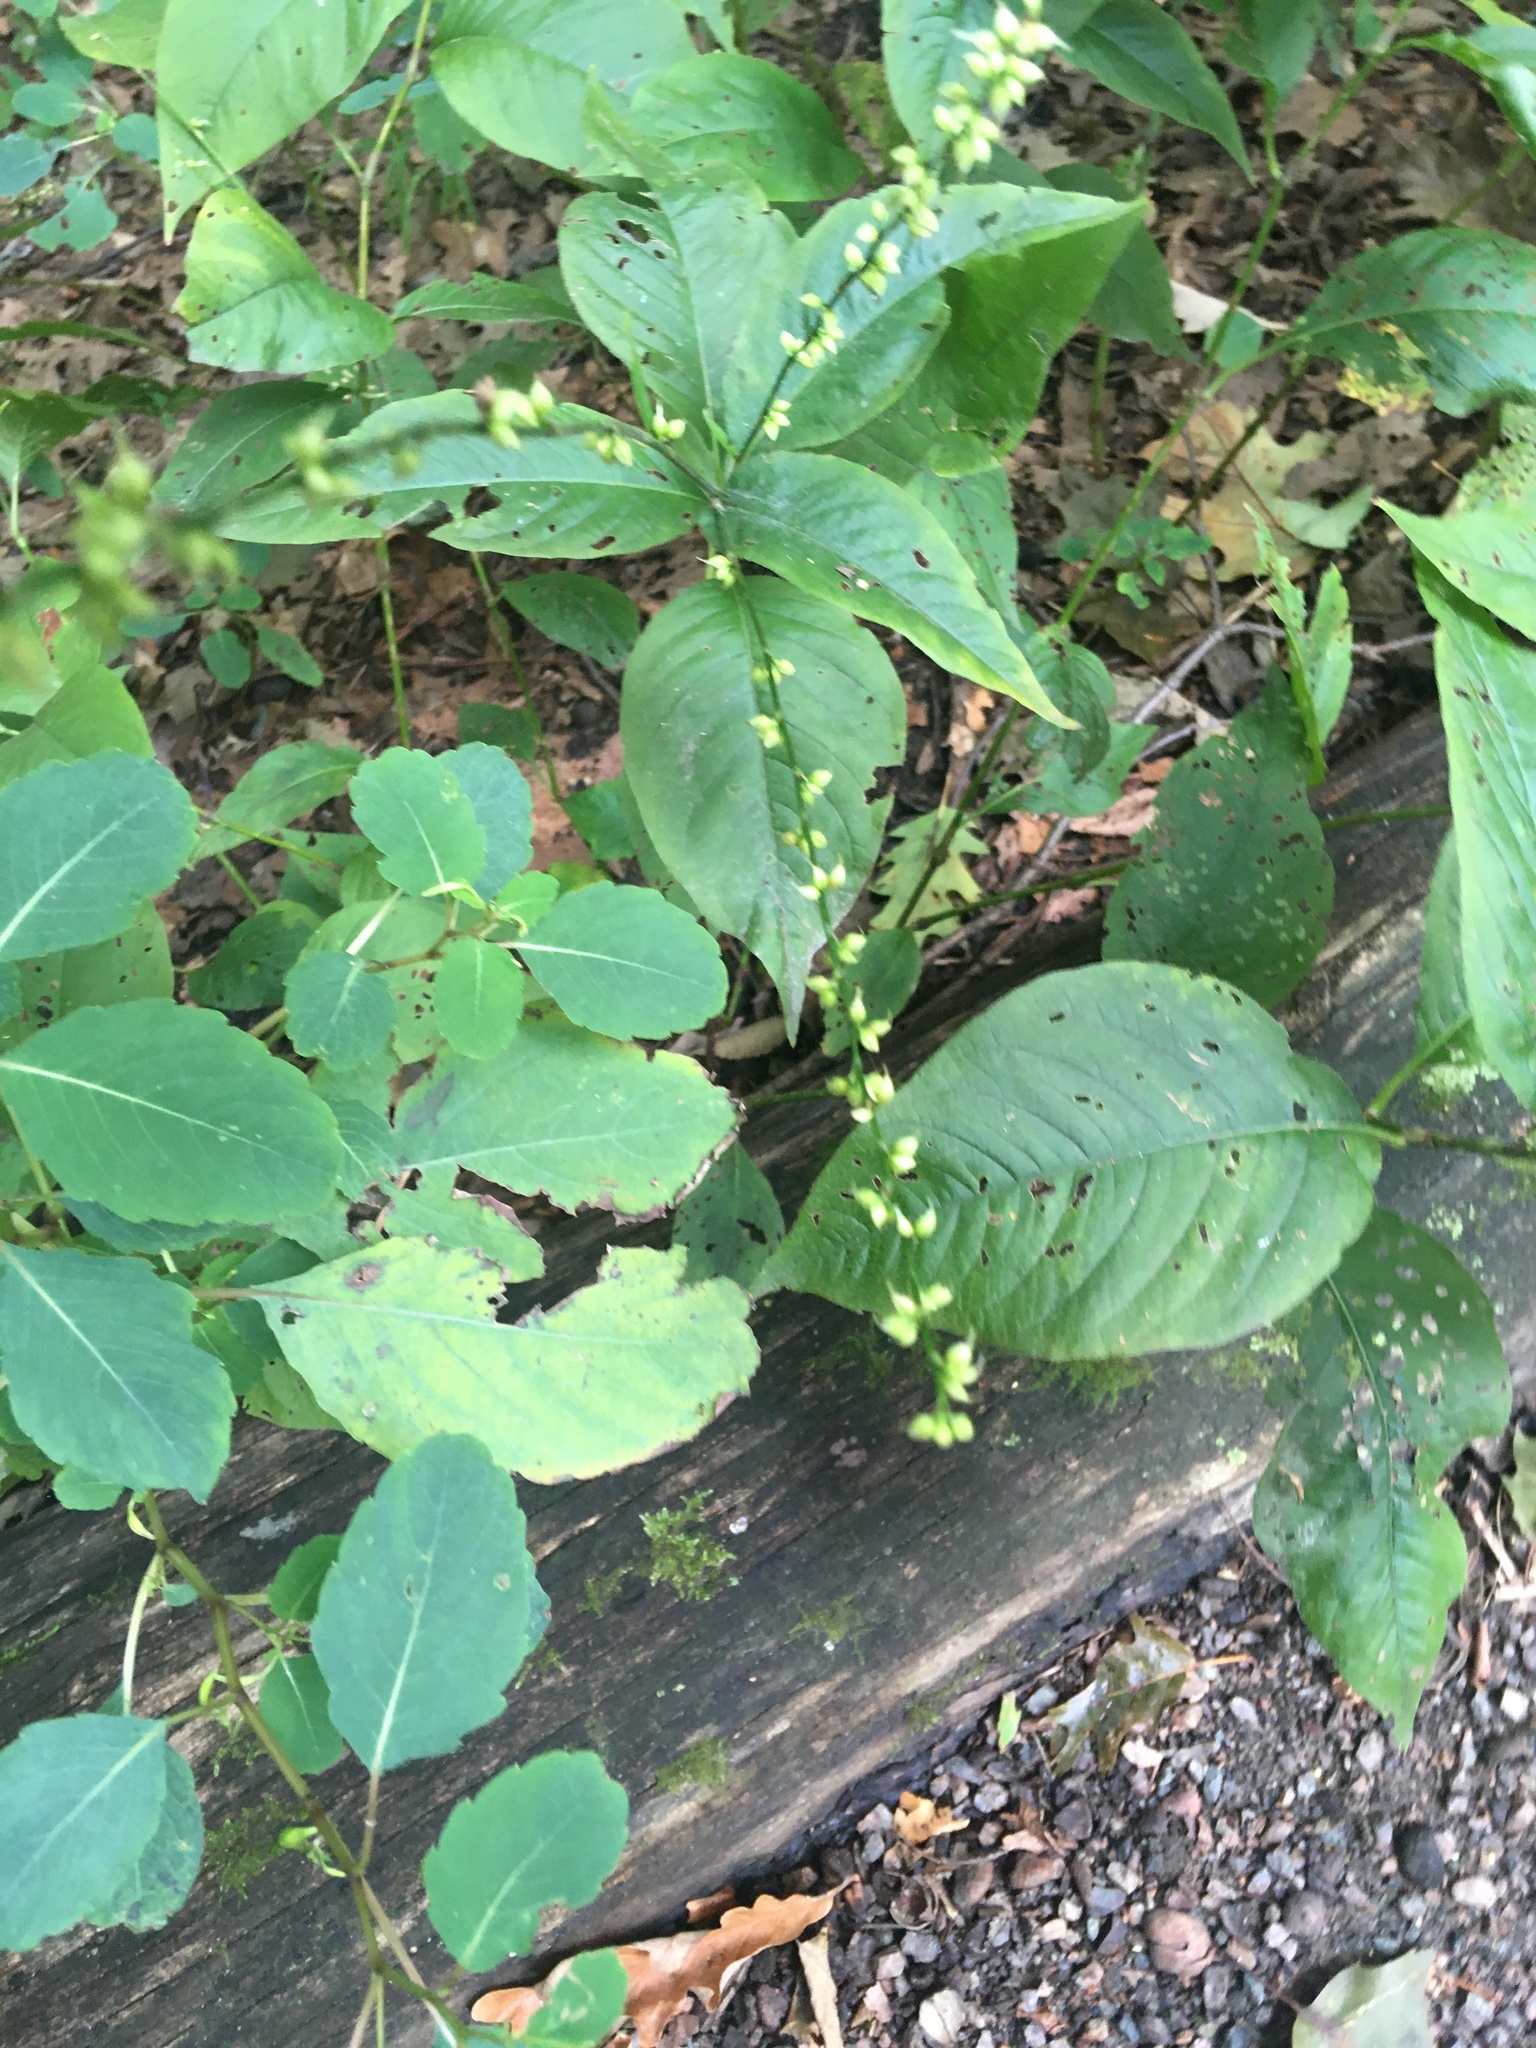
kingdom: Plantae
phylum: Tracheophyta
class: Magnoliopsida
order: Caryophyllales
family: Polygonaceae
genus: Persicaria
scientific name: Persicaria virginiana
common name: Jumpseed
